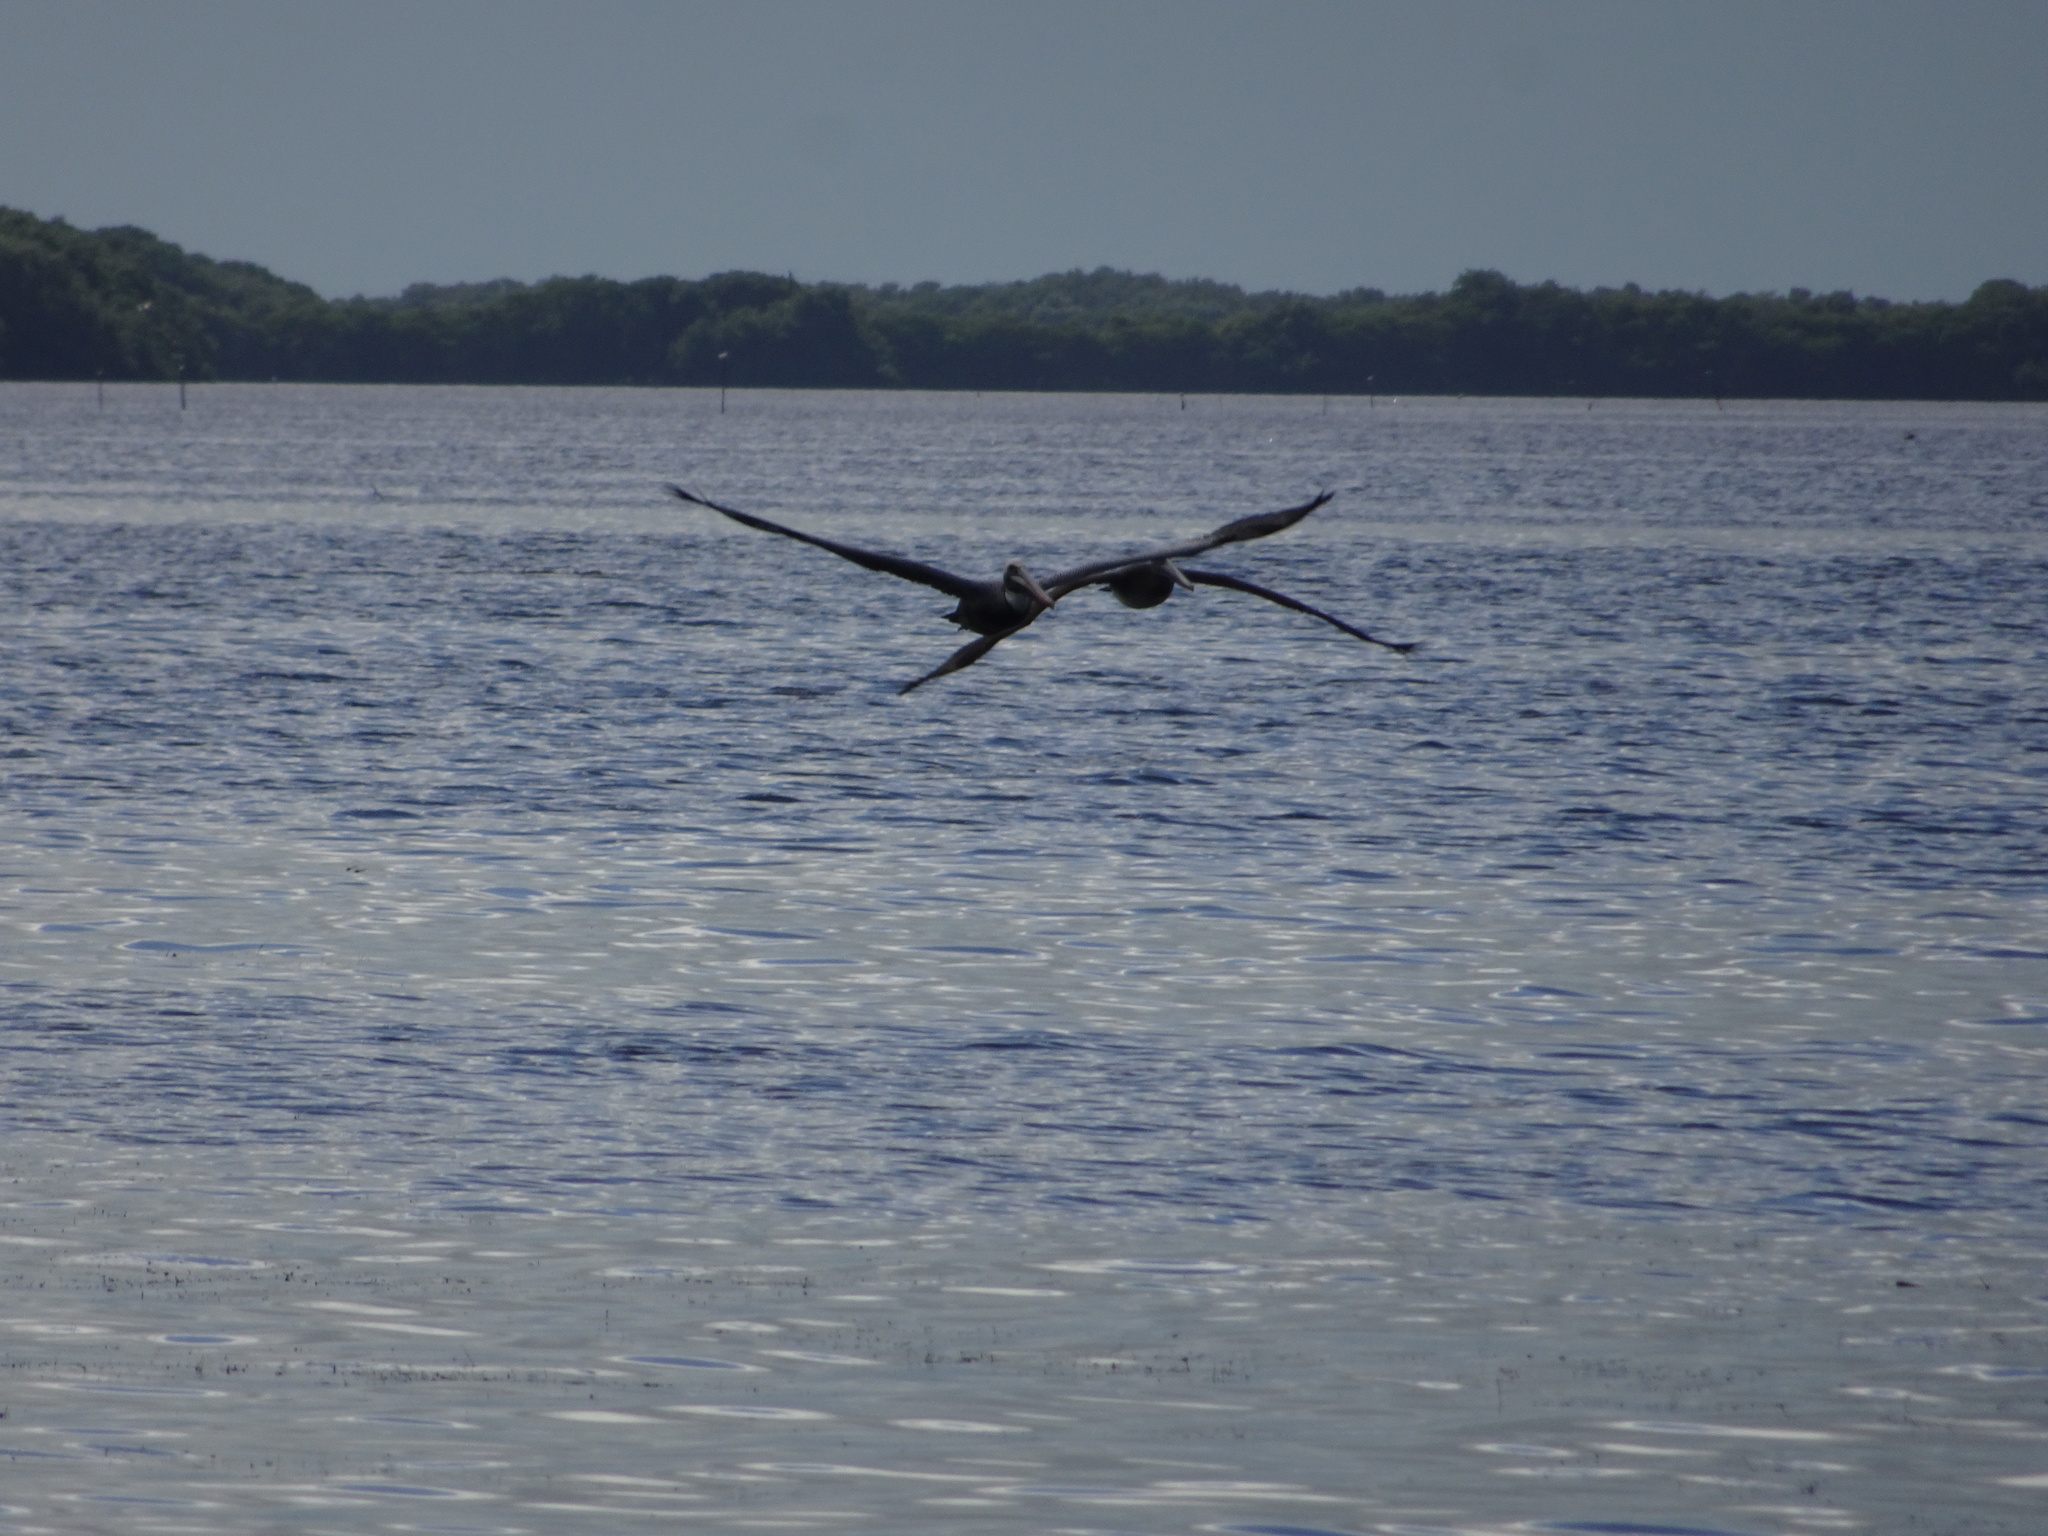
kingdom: Animalia
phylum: Chordata
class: Aves
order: Pelecaniformes
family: Pelecanidae
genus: Pelecanus
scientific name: Pelecanus occidentalis
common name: Brown pelican
